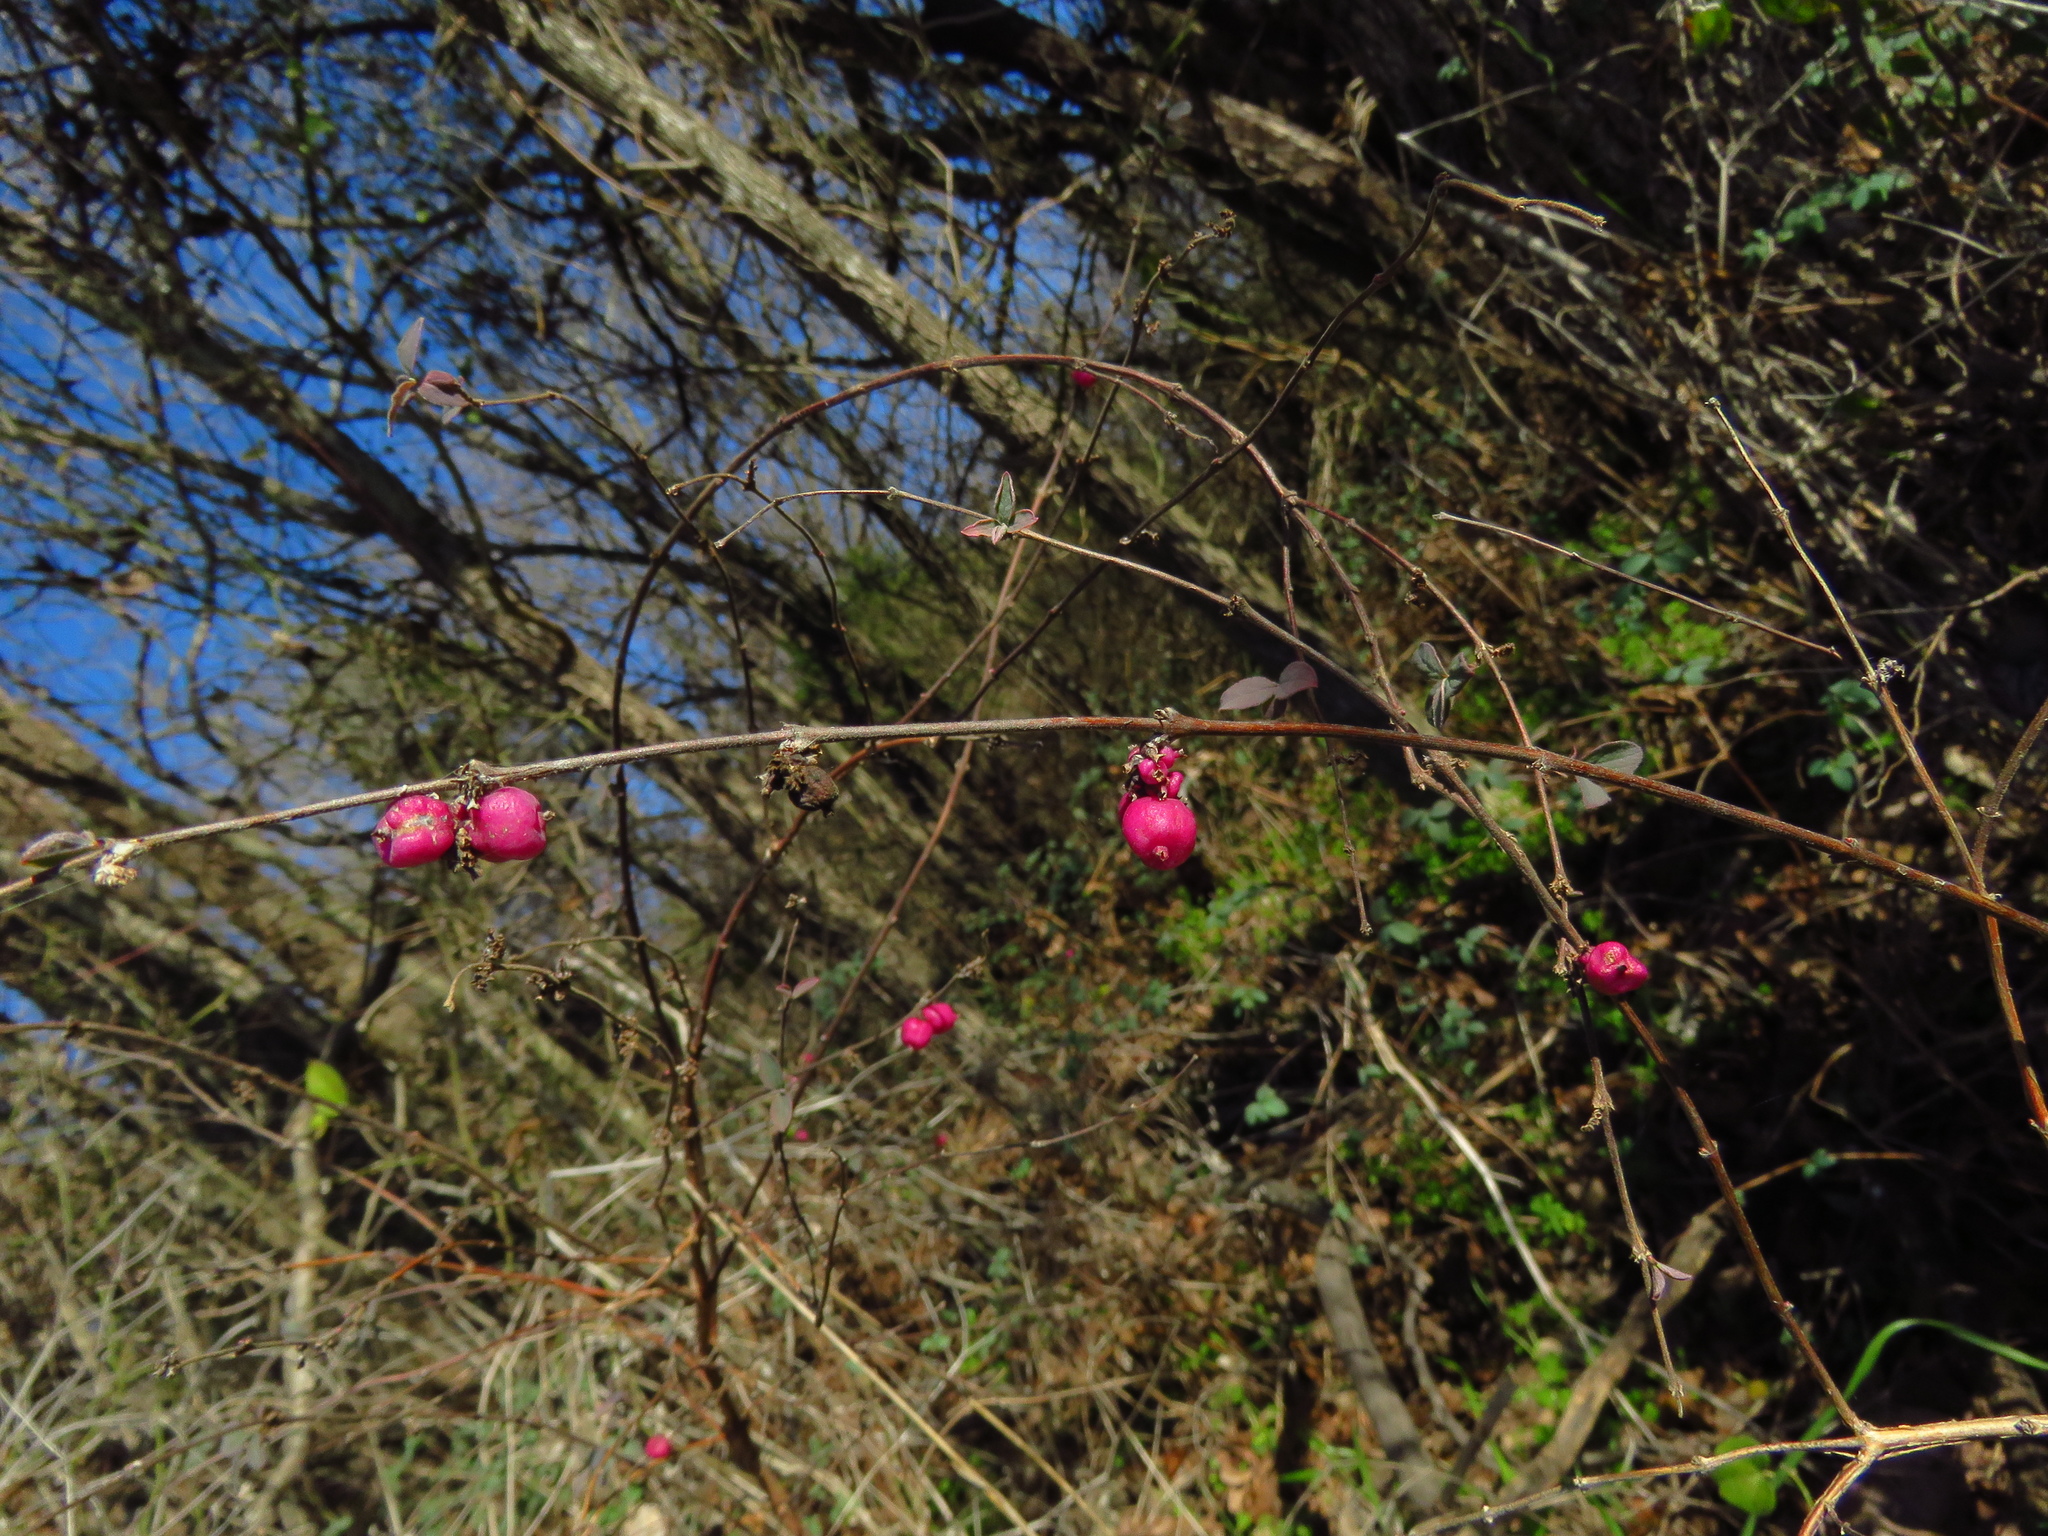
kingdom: Plantae
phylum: Tracheophyta
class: Magnoliopsida
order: Dipsacales
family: Caprifoliaceae
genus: Symphoricarpos
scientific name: Symphoricarpos orbiculatus
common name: Coralberry
